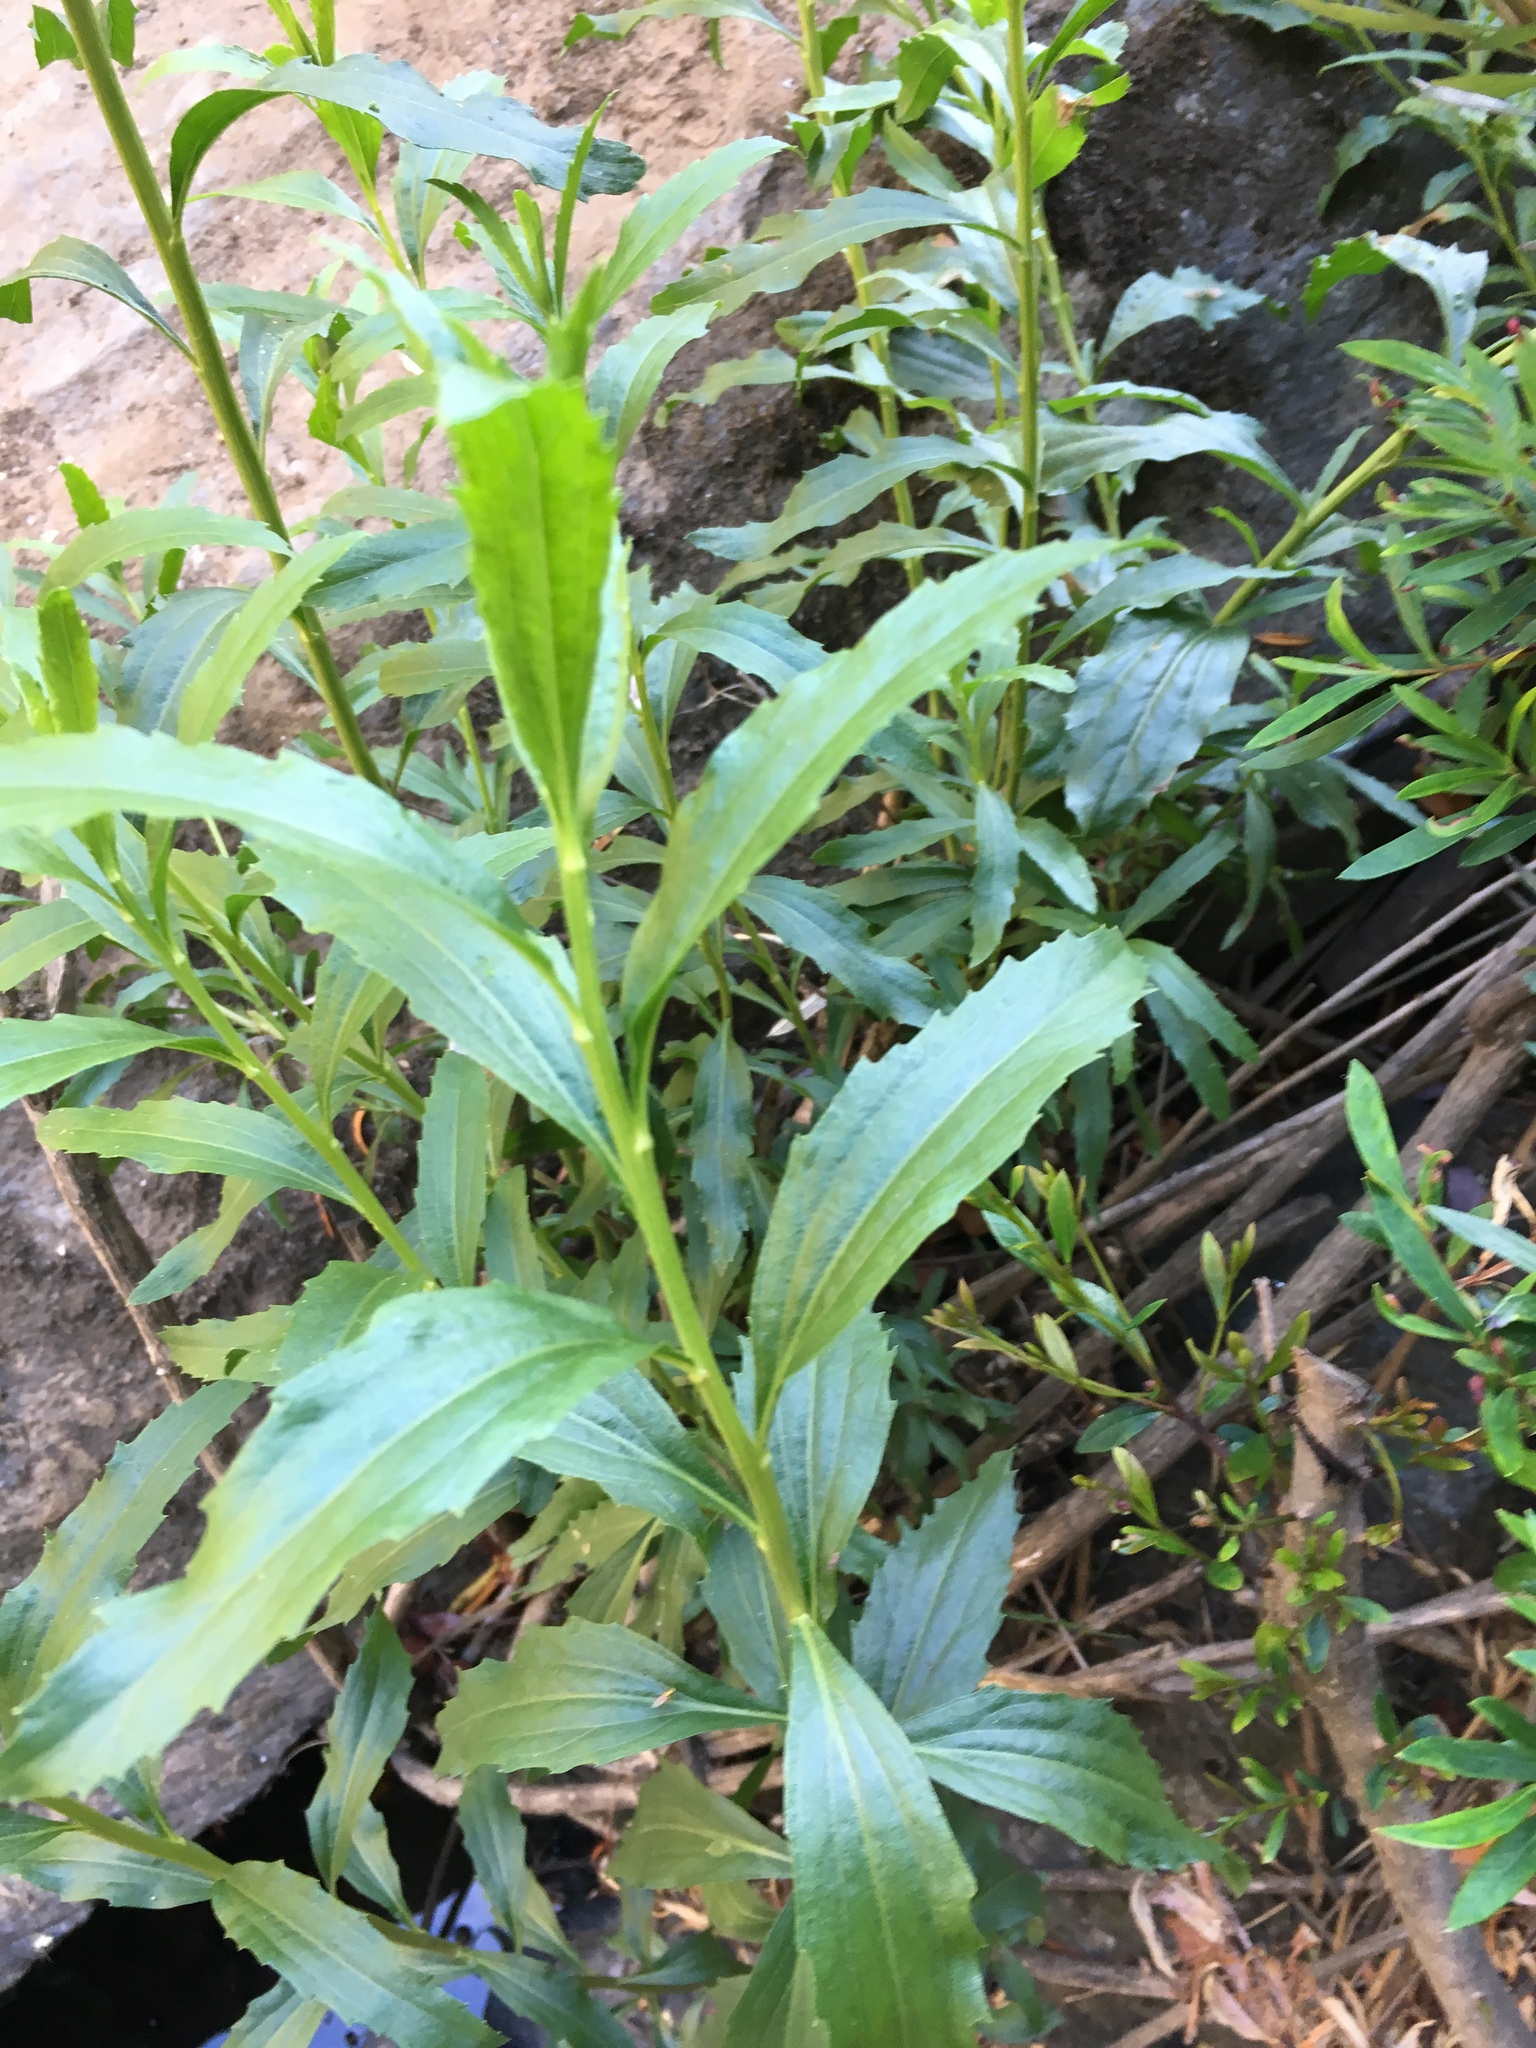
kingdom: Plantae
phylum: Tracheophyta
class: Magnoliopsida
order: Asterales
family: Asteraceae
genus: Baccharis
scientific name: Baccharis sphaerocephala
